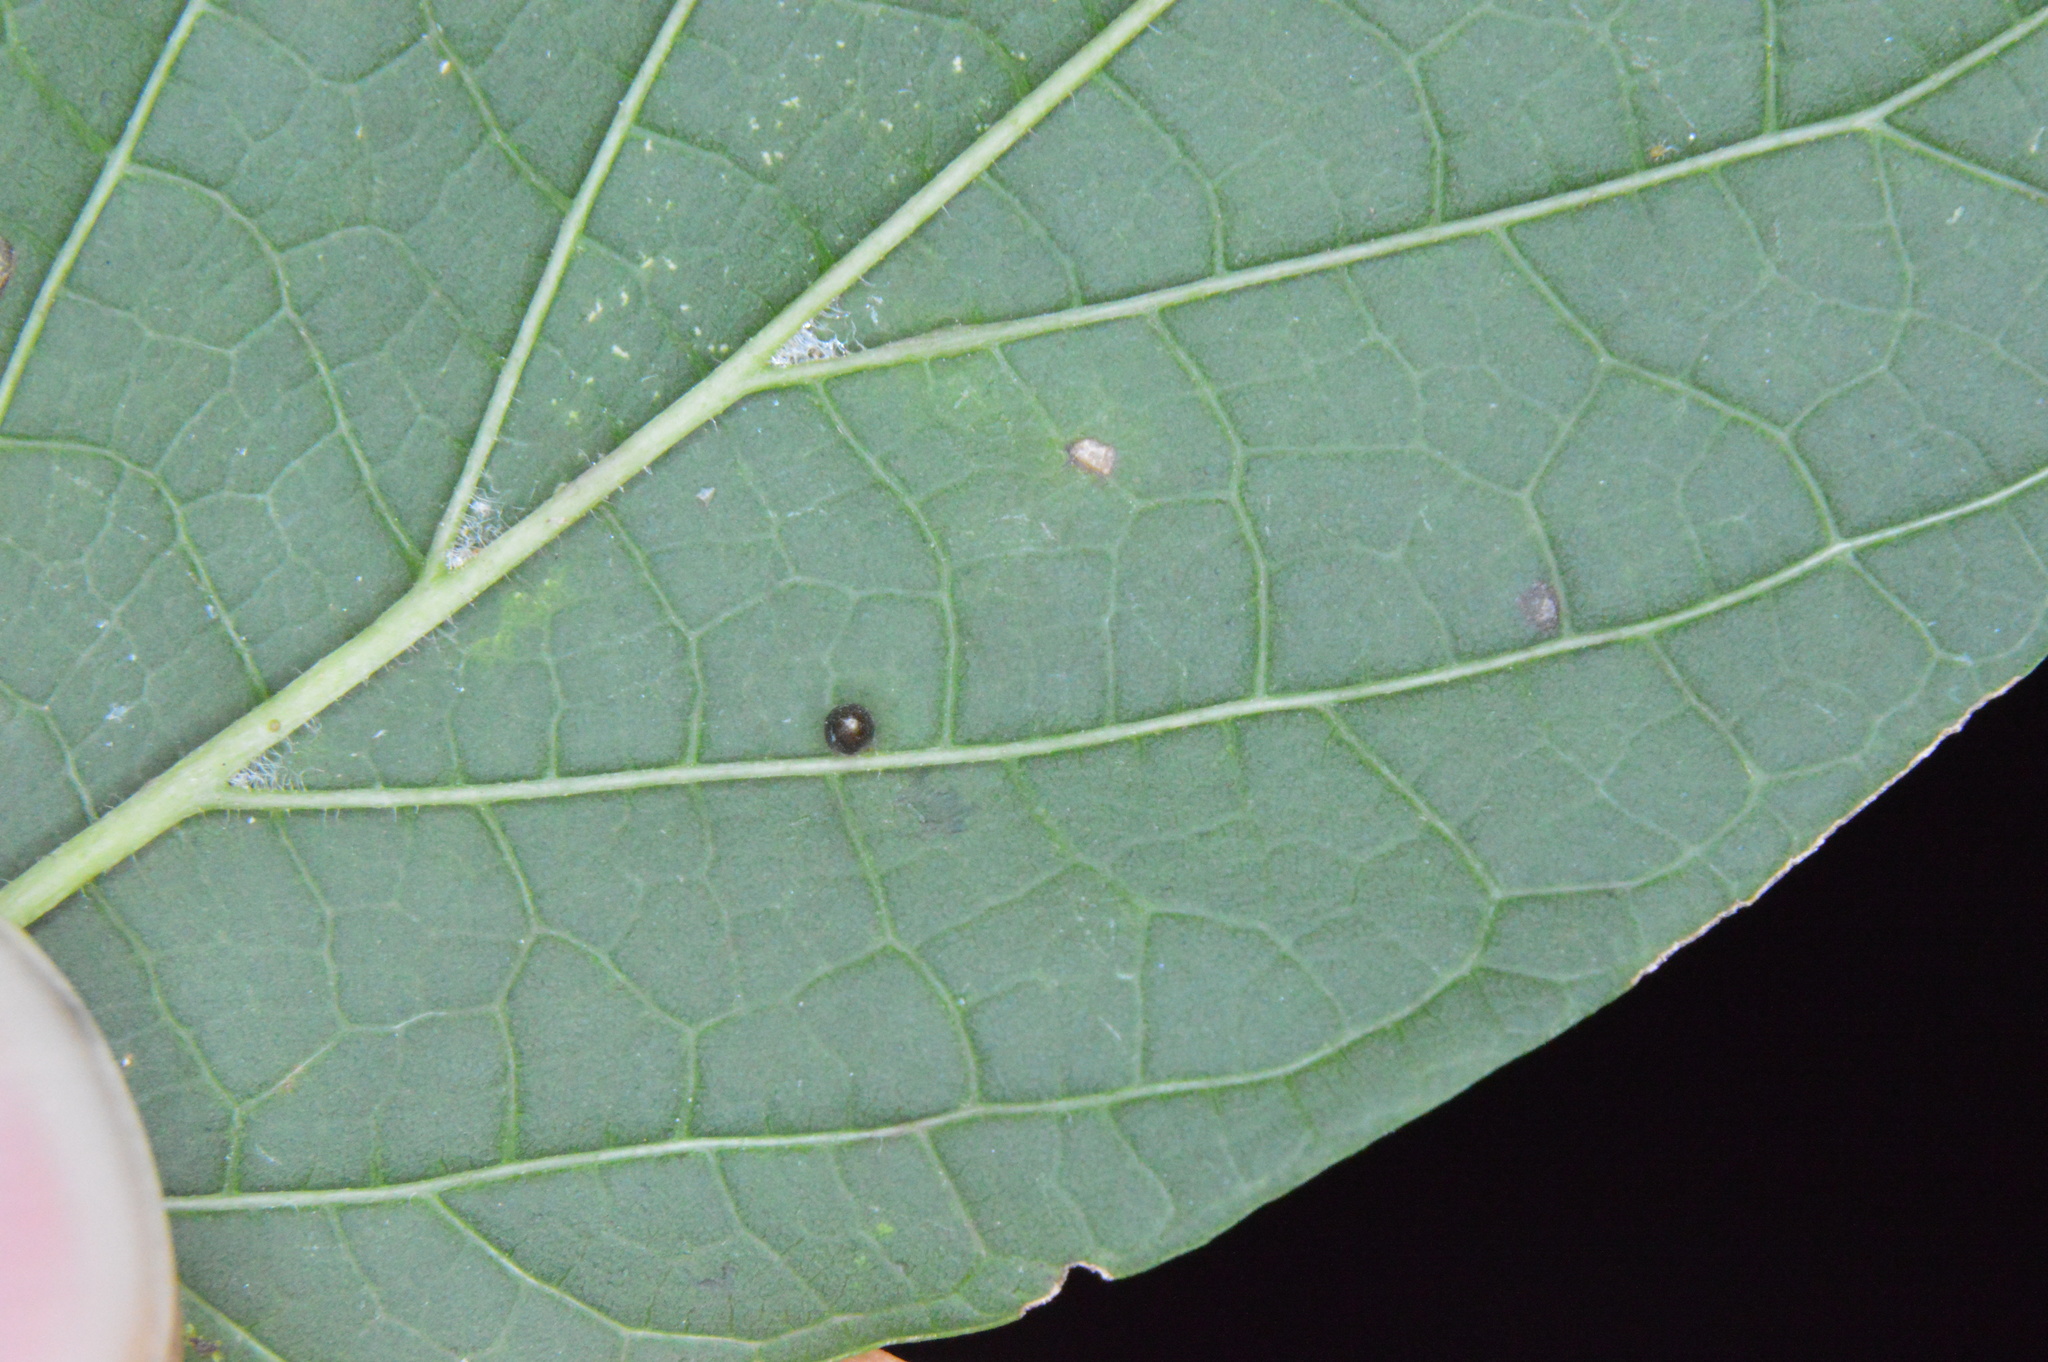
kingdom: Animalia
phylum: Arthropoda
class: Insecta
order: Diptera
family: Cecidomyiidae
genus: Celticecis
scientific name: Celticecis cupiformis
